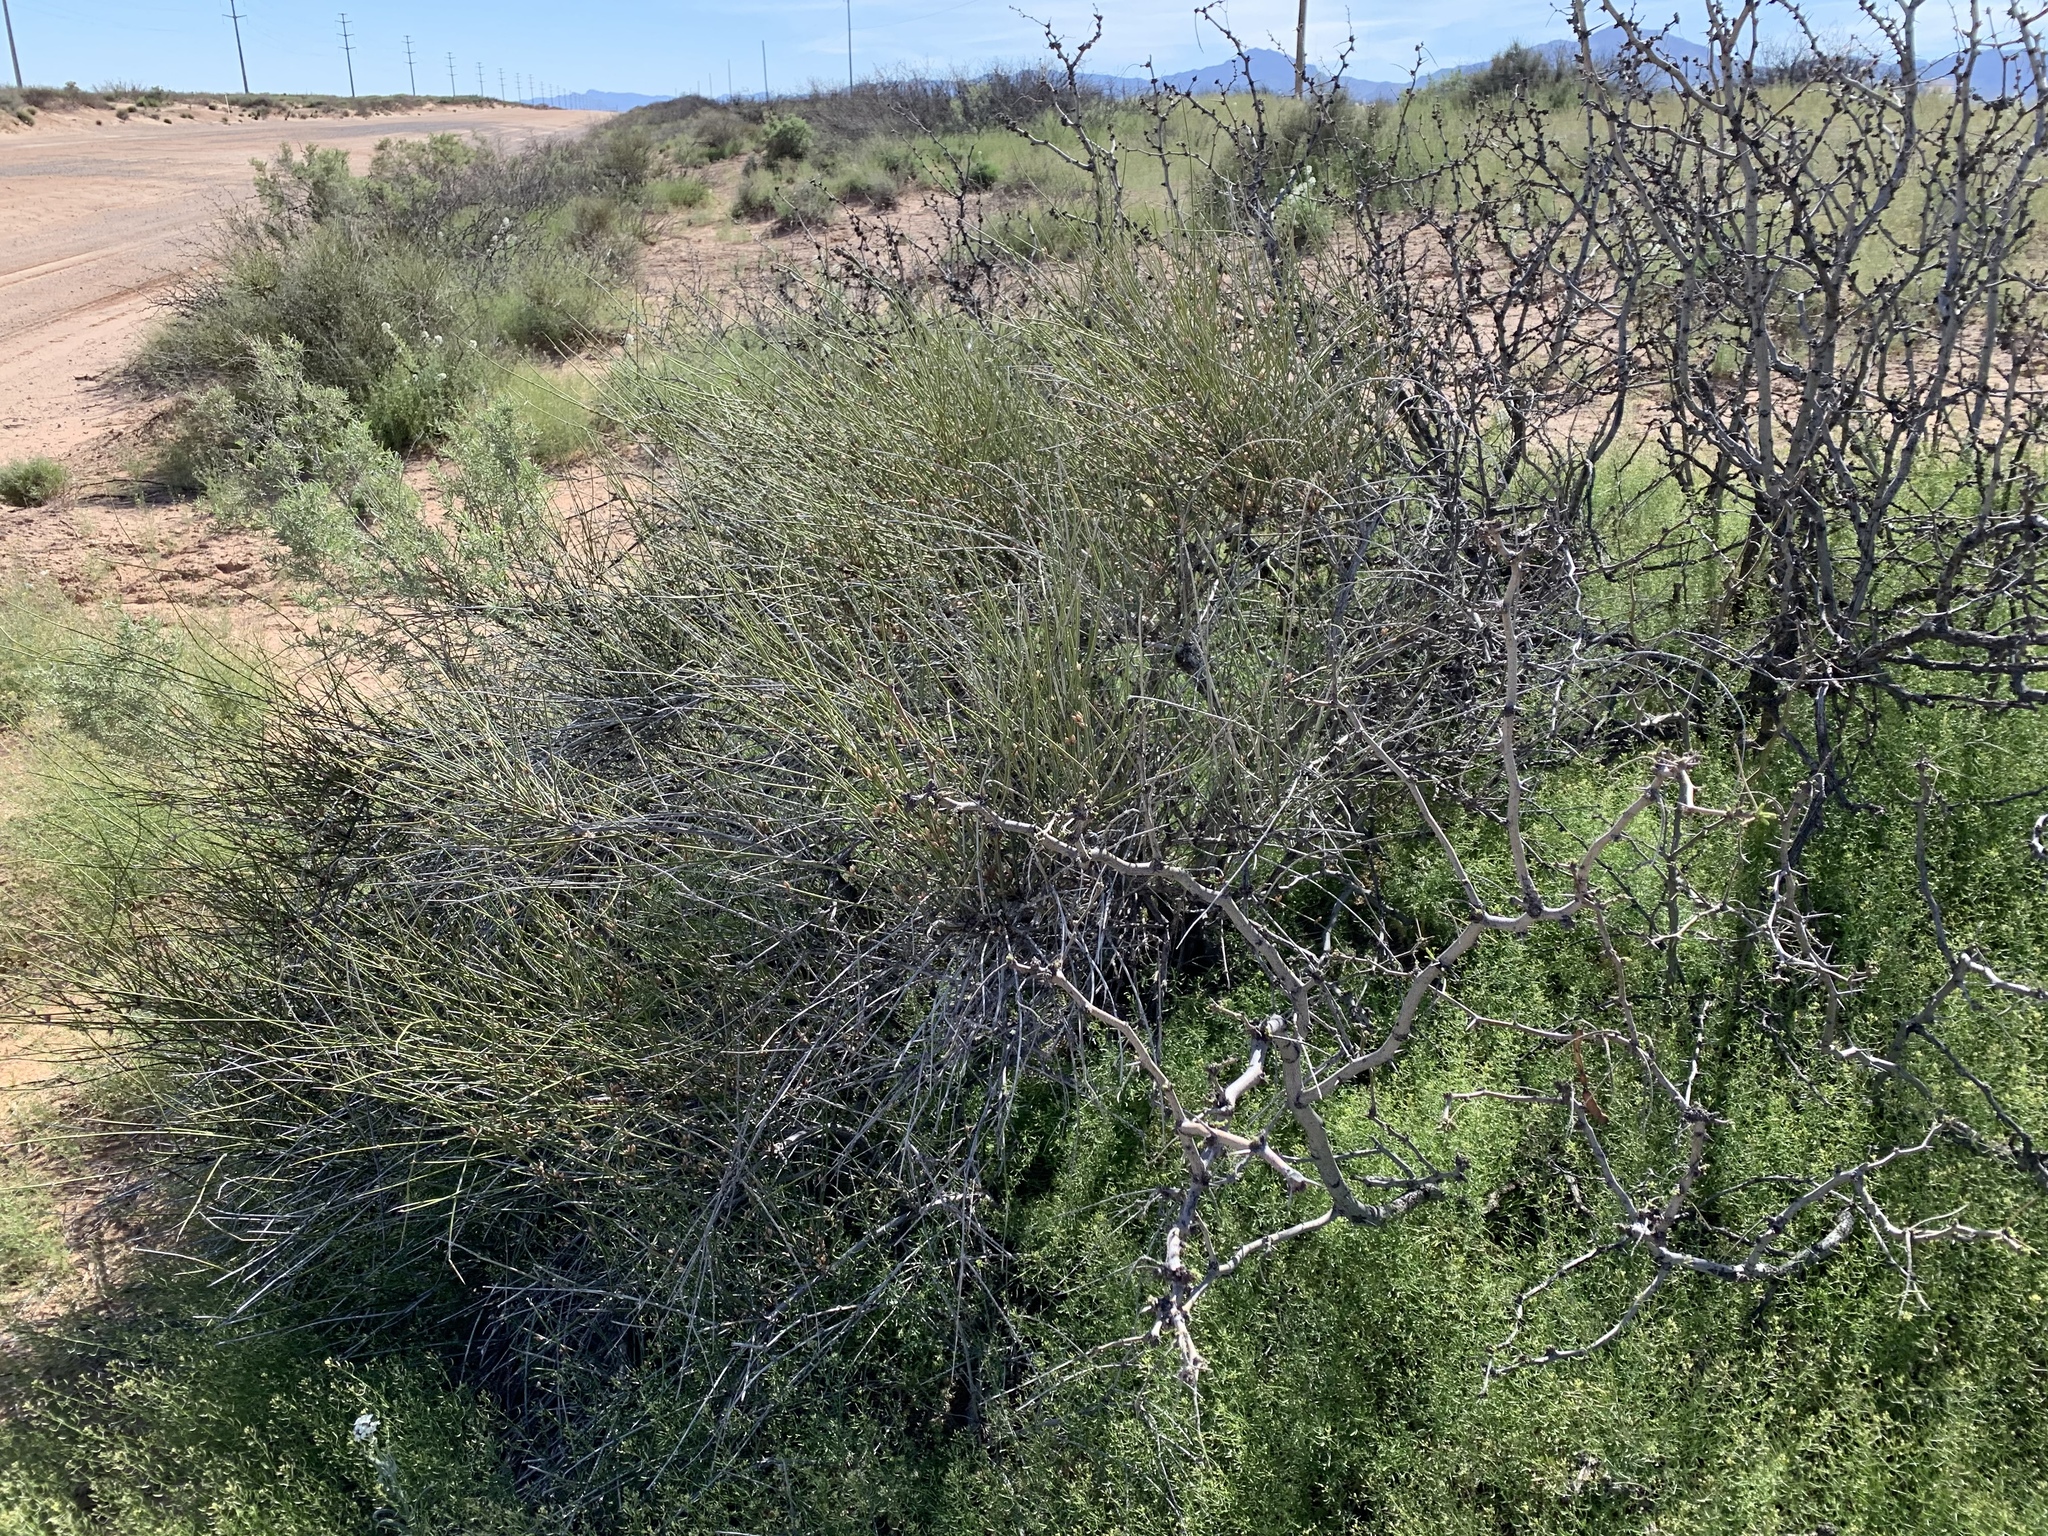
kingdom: Plantae
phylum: Tracheophyta
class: Gnetopsida
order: Ephedrales
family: Ephedraceae
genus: Ephedra
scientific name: Ephedra trifurca
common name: Mexican-tea
